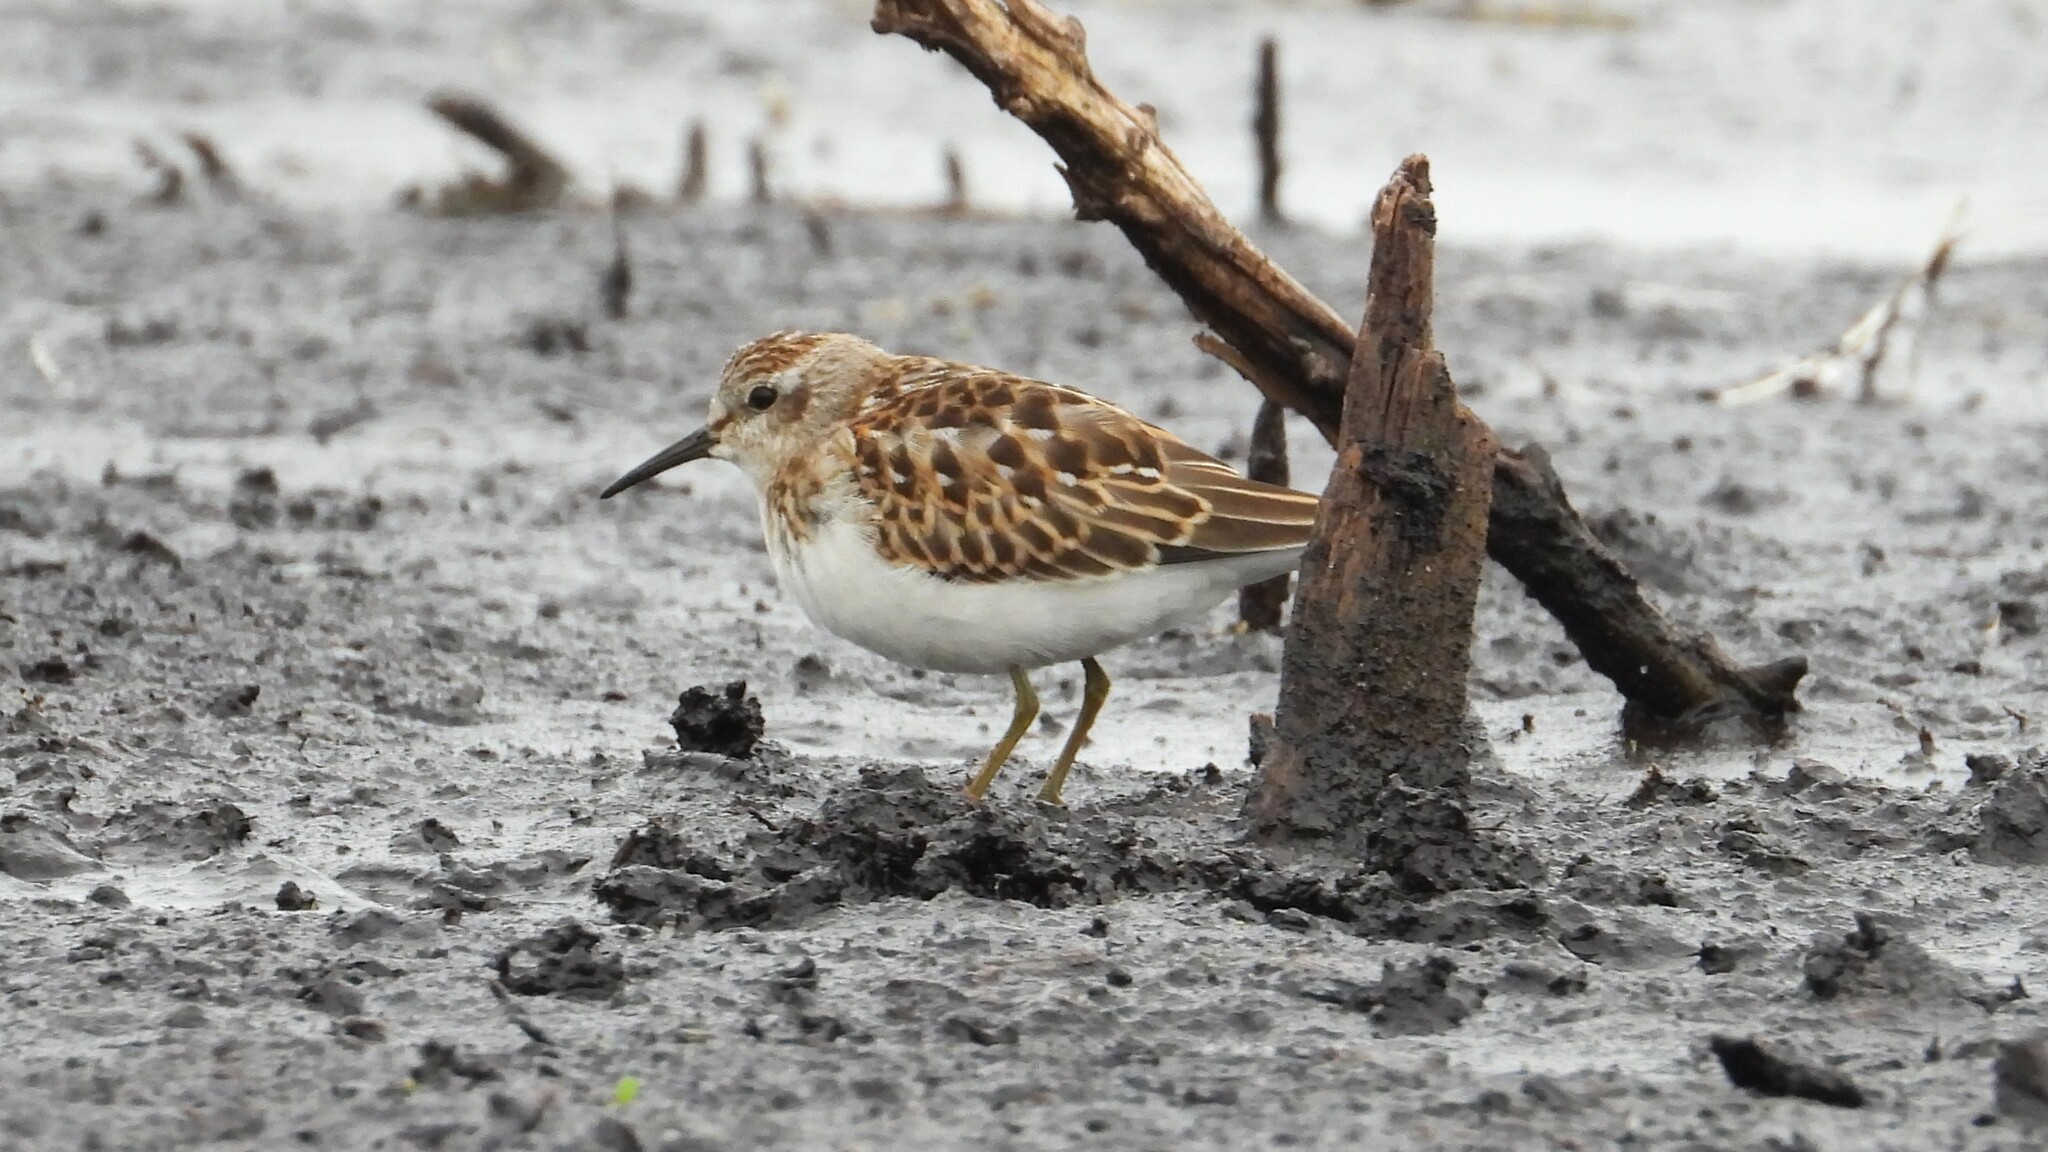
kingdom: Animalia
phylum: Chordata
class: Aves
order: Charadriiformes
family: Scolopacidae
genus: Calidris
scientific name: Calidris minutilla
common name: Least sandpiper
